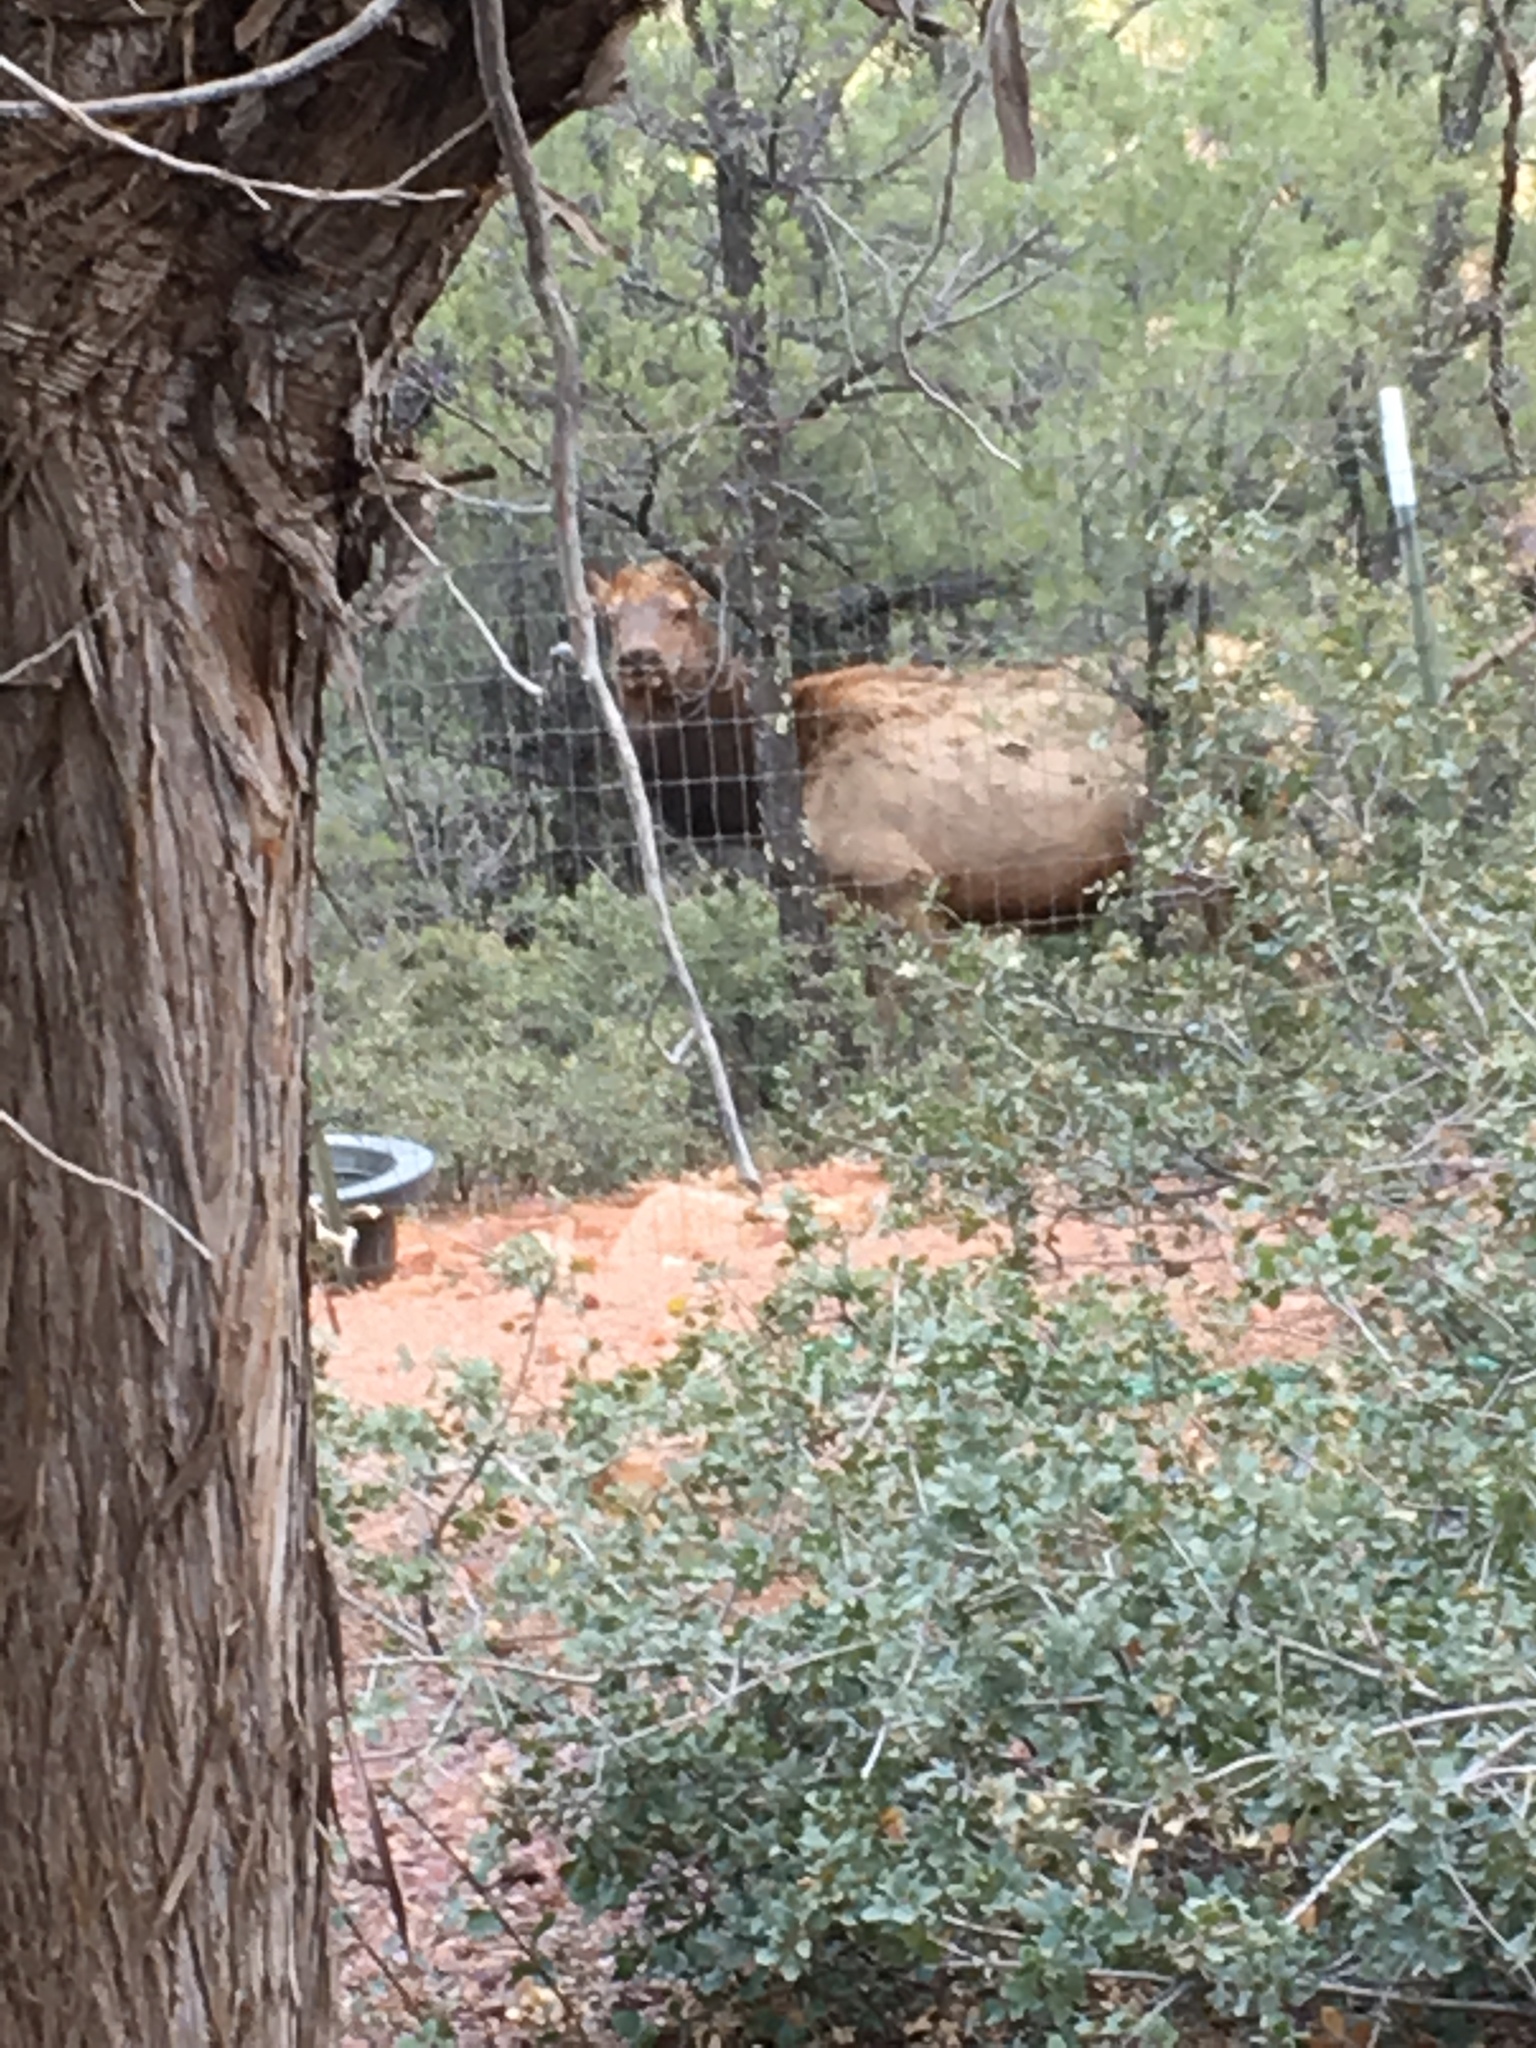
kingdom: Animalia
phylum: Chordata
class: Mammalia
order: Artiodactyla
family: Cervidae
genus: Cervus
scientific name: Cervus elaphus
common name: Red deer
